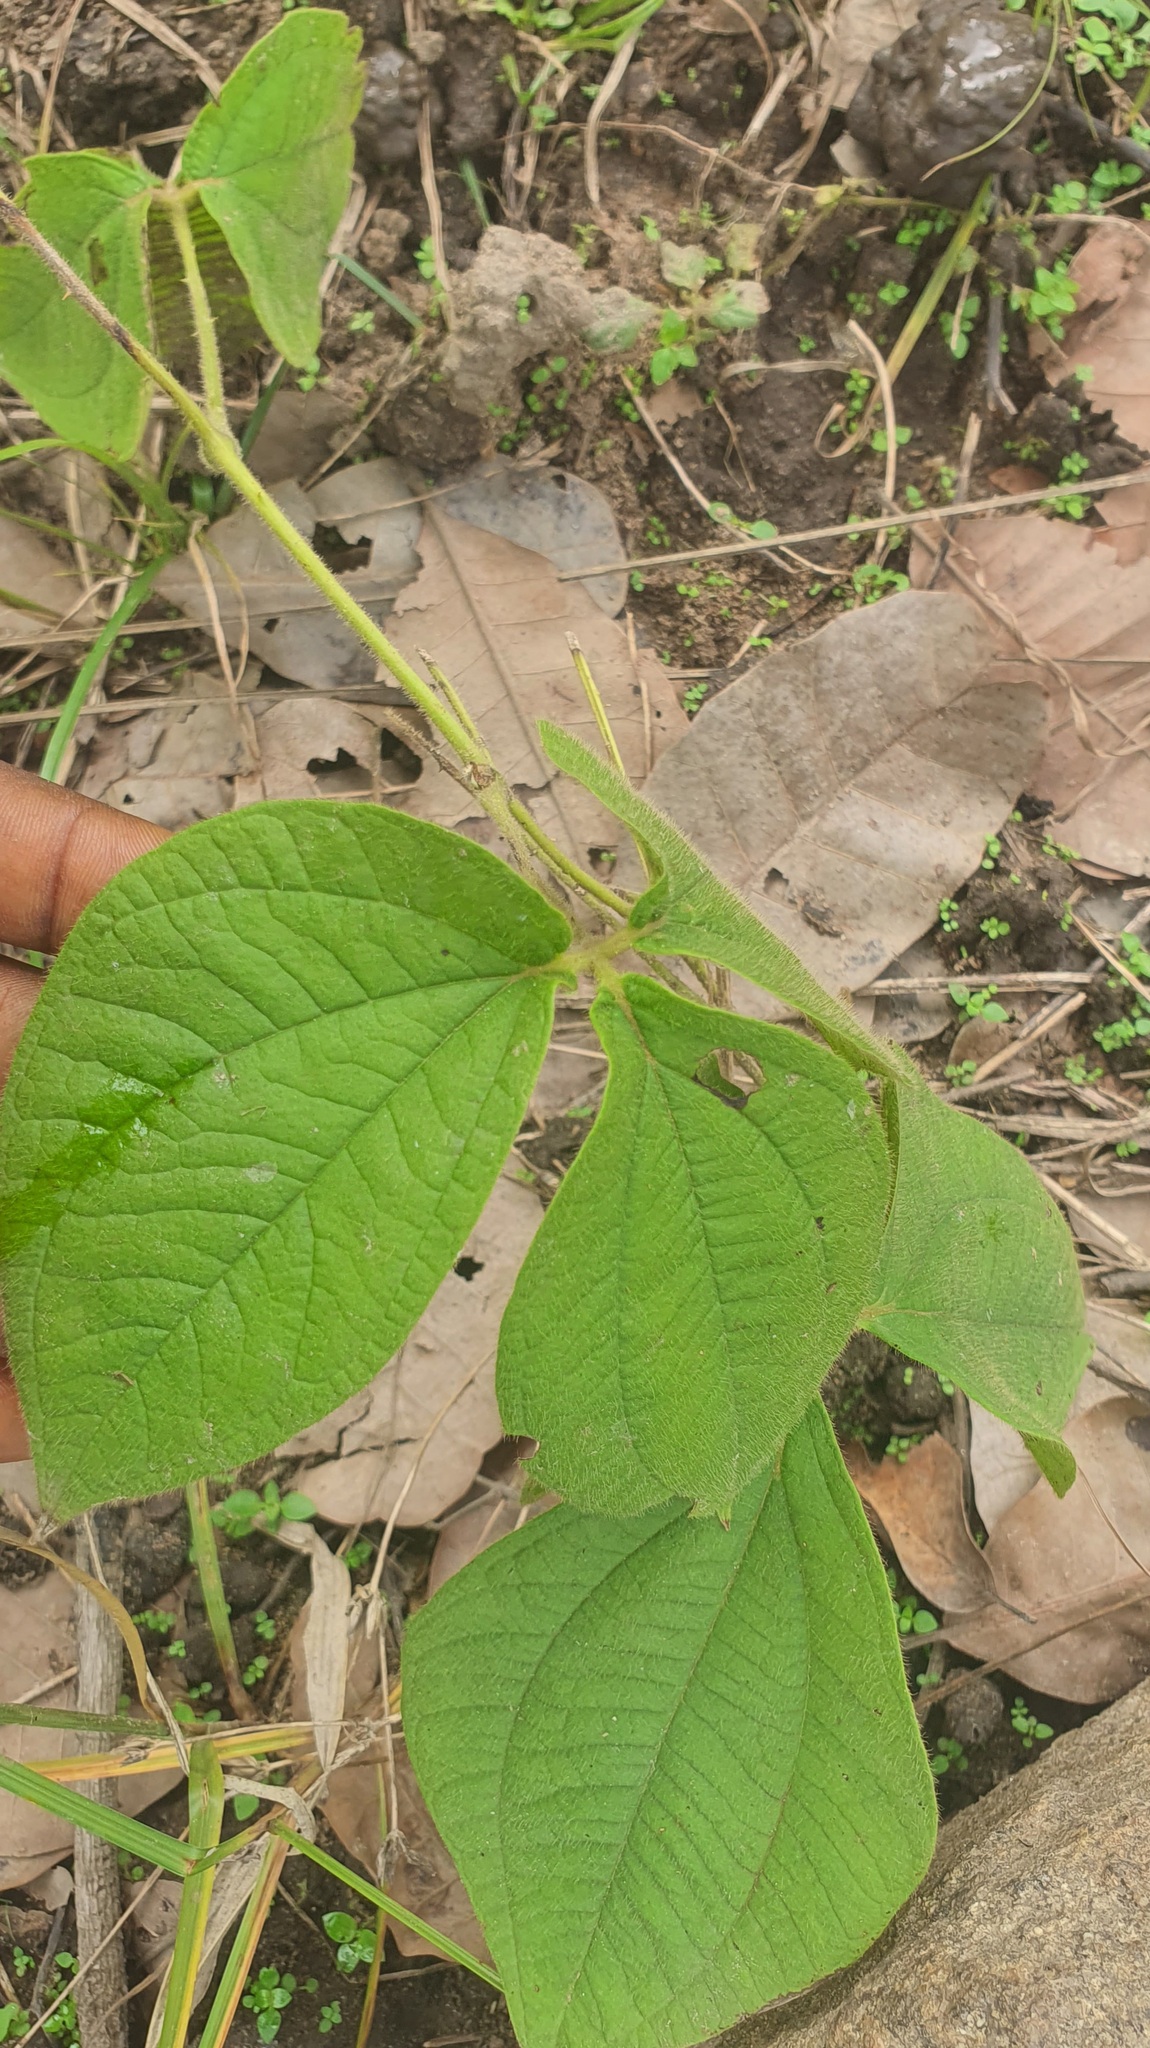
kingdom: Plantae
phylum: Tracheophyta
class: Liliopsida
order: Dioscoreales
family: Dioscoreaceae
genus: Dioscorea
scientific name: Dioscorea dumetorum
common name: African bitter yam
